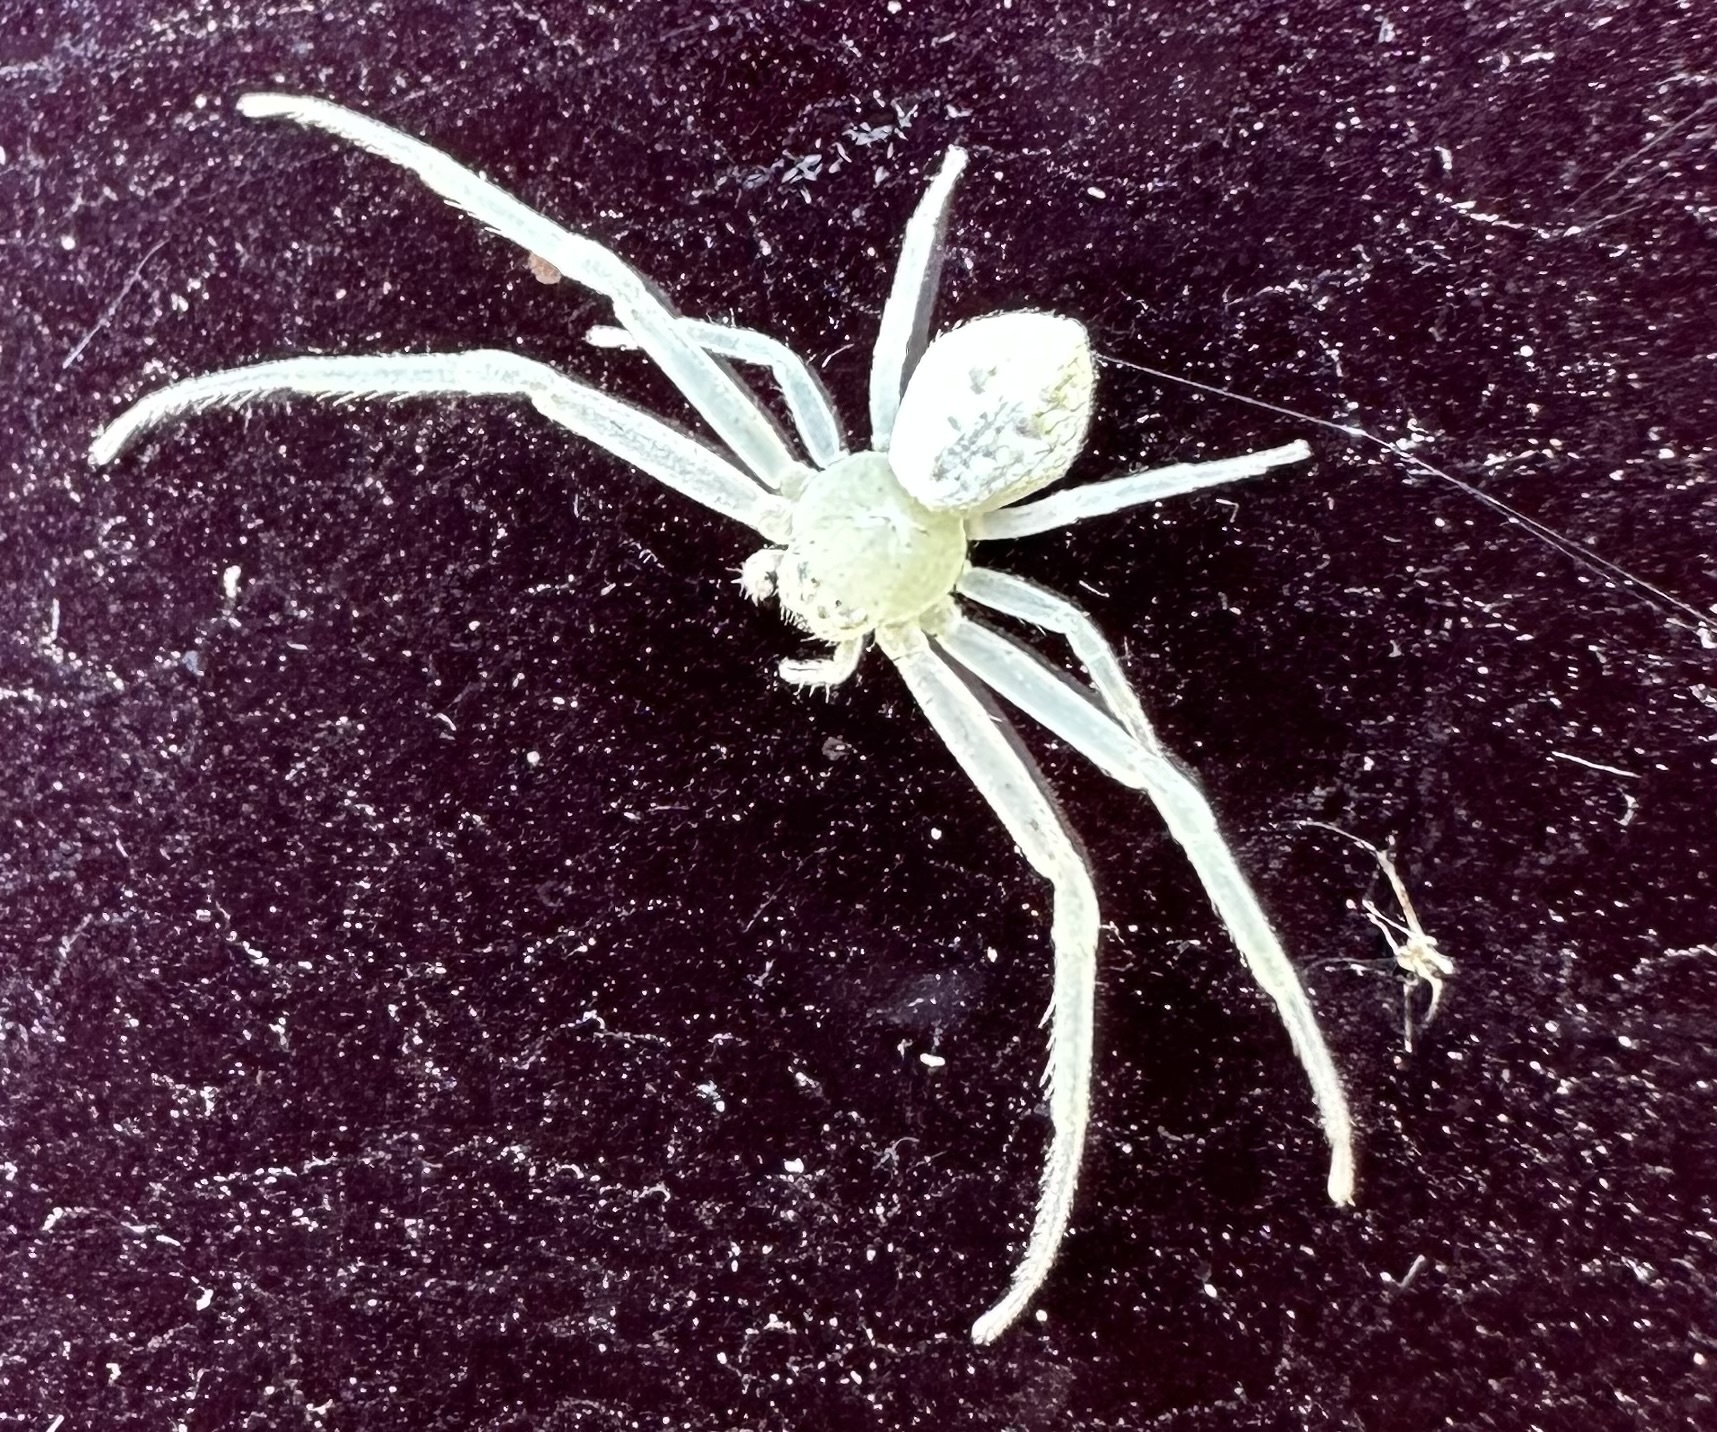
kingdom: Animalia
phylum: Arthropoda
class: Arachnida
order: Araneae
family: Thomisidae
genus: Misumessus
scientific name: Misumessus oblongus
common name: American green crab spider
